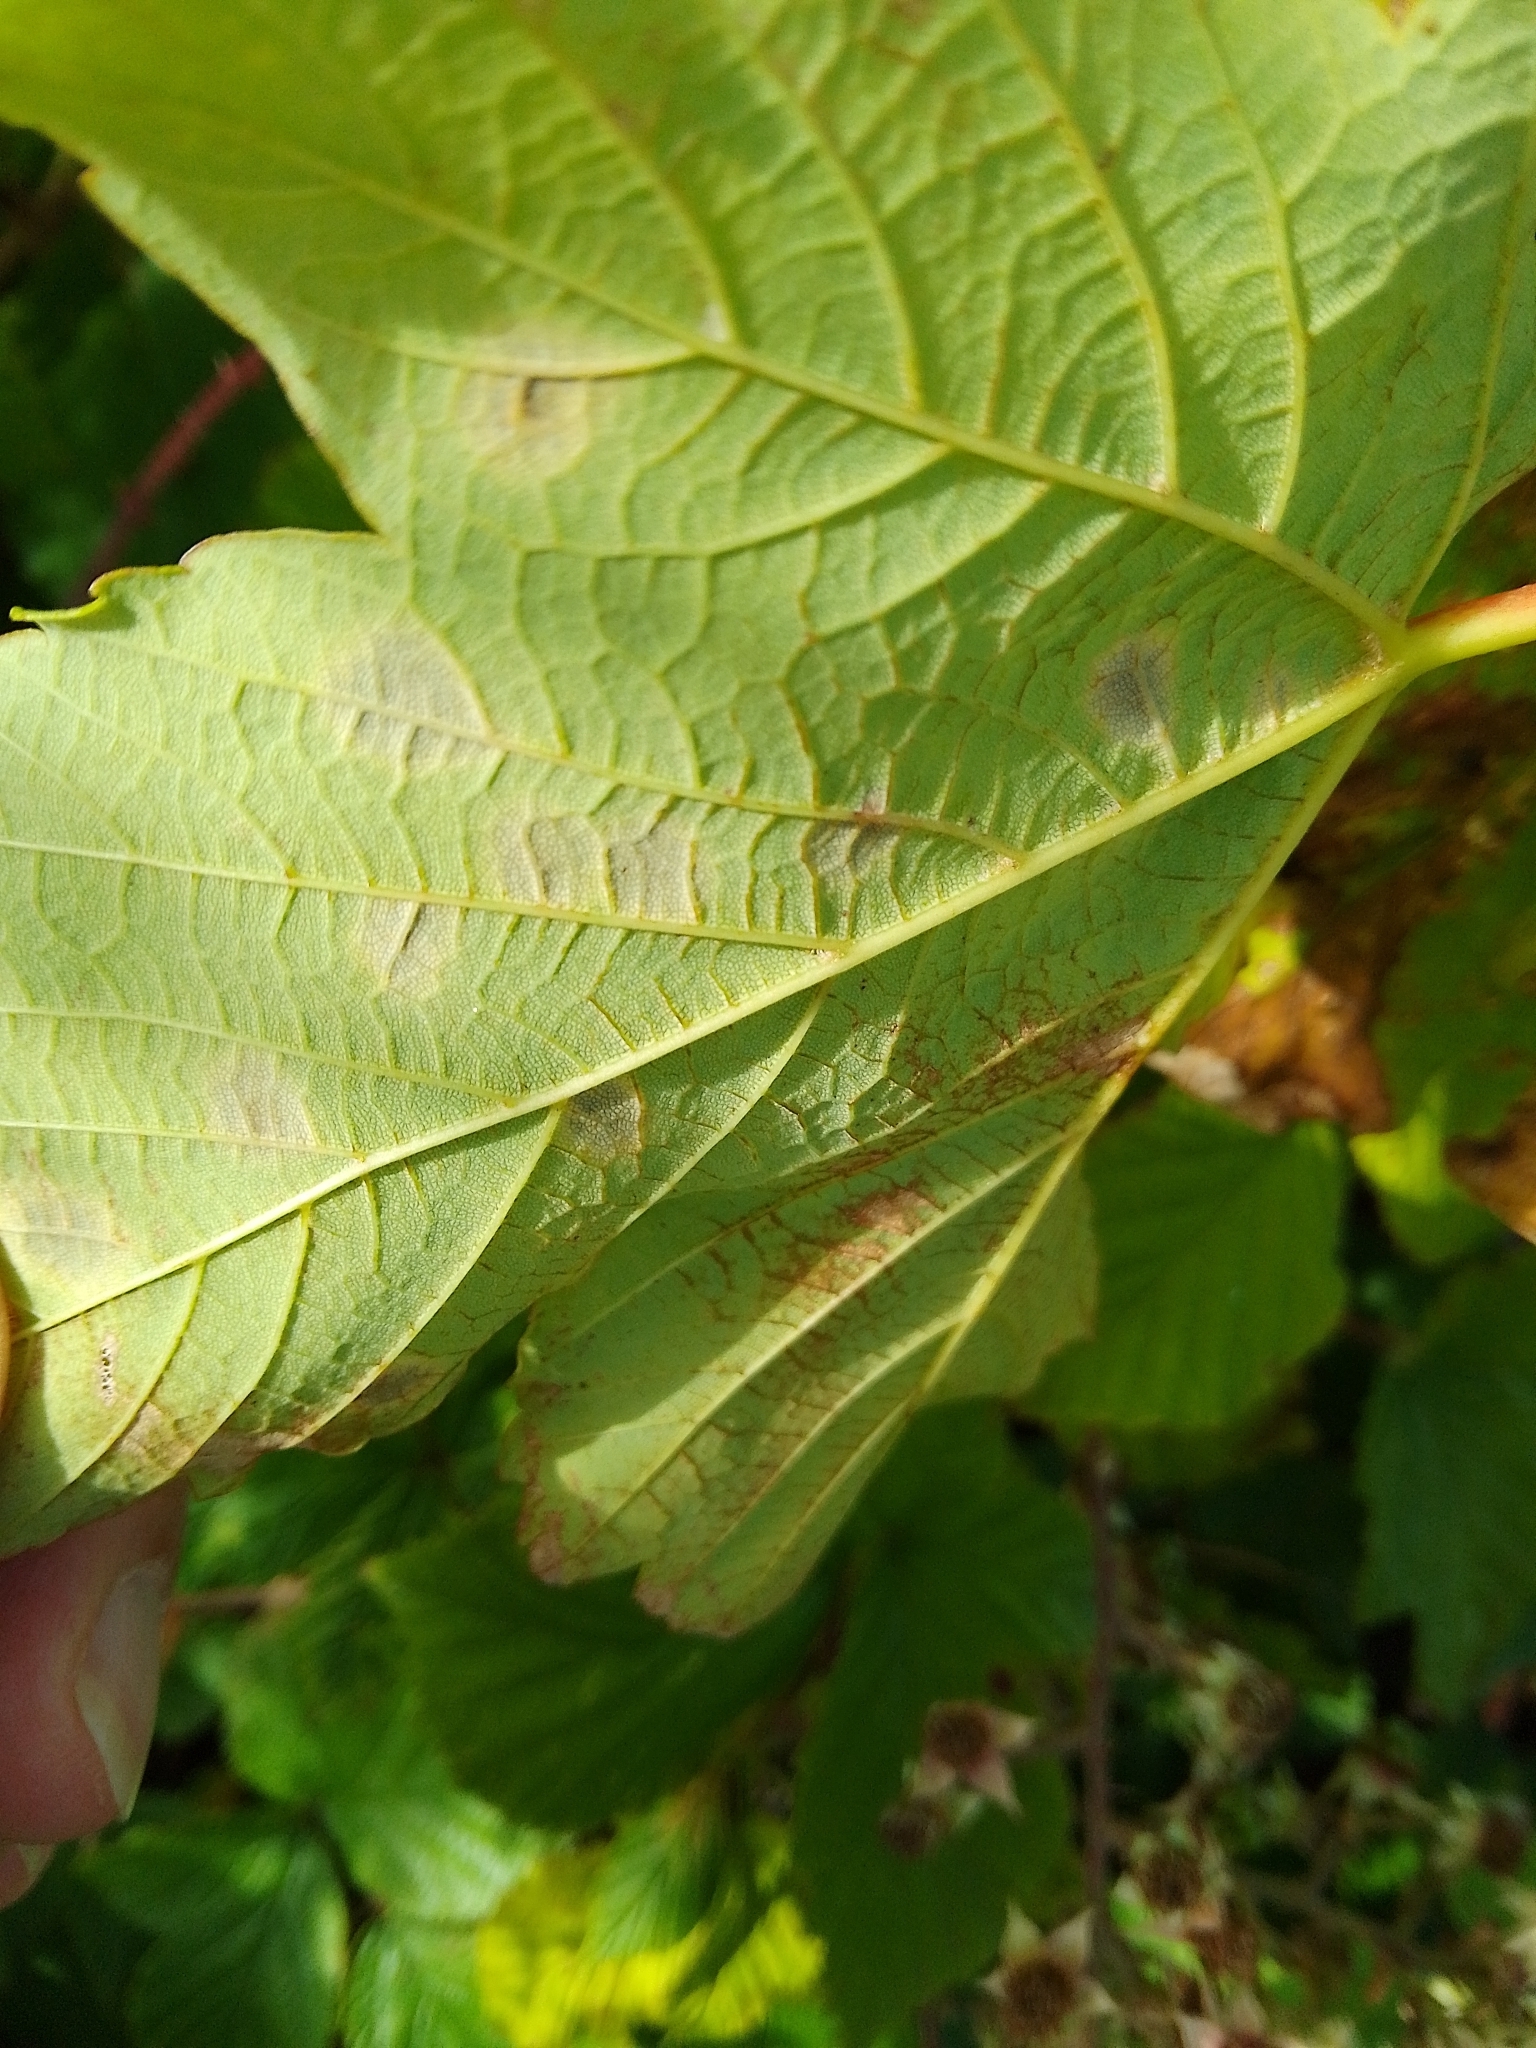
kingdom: Fungi
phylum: Ascomycota
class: Leotiomycetes
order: Rhytismatales
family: Rhytismataceae
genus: Rhytisma
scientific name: Rhytisma acerinum
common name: European tar spot
